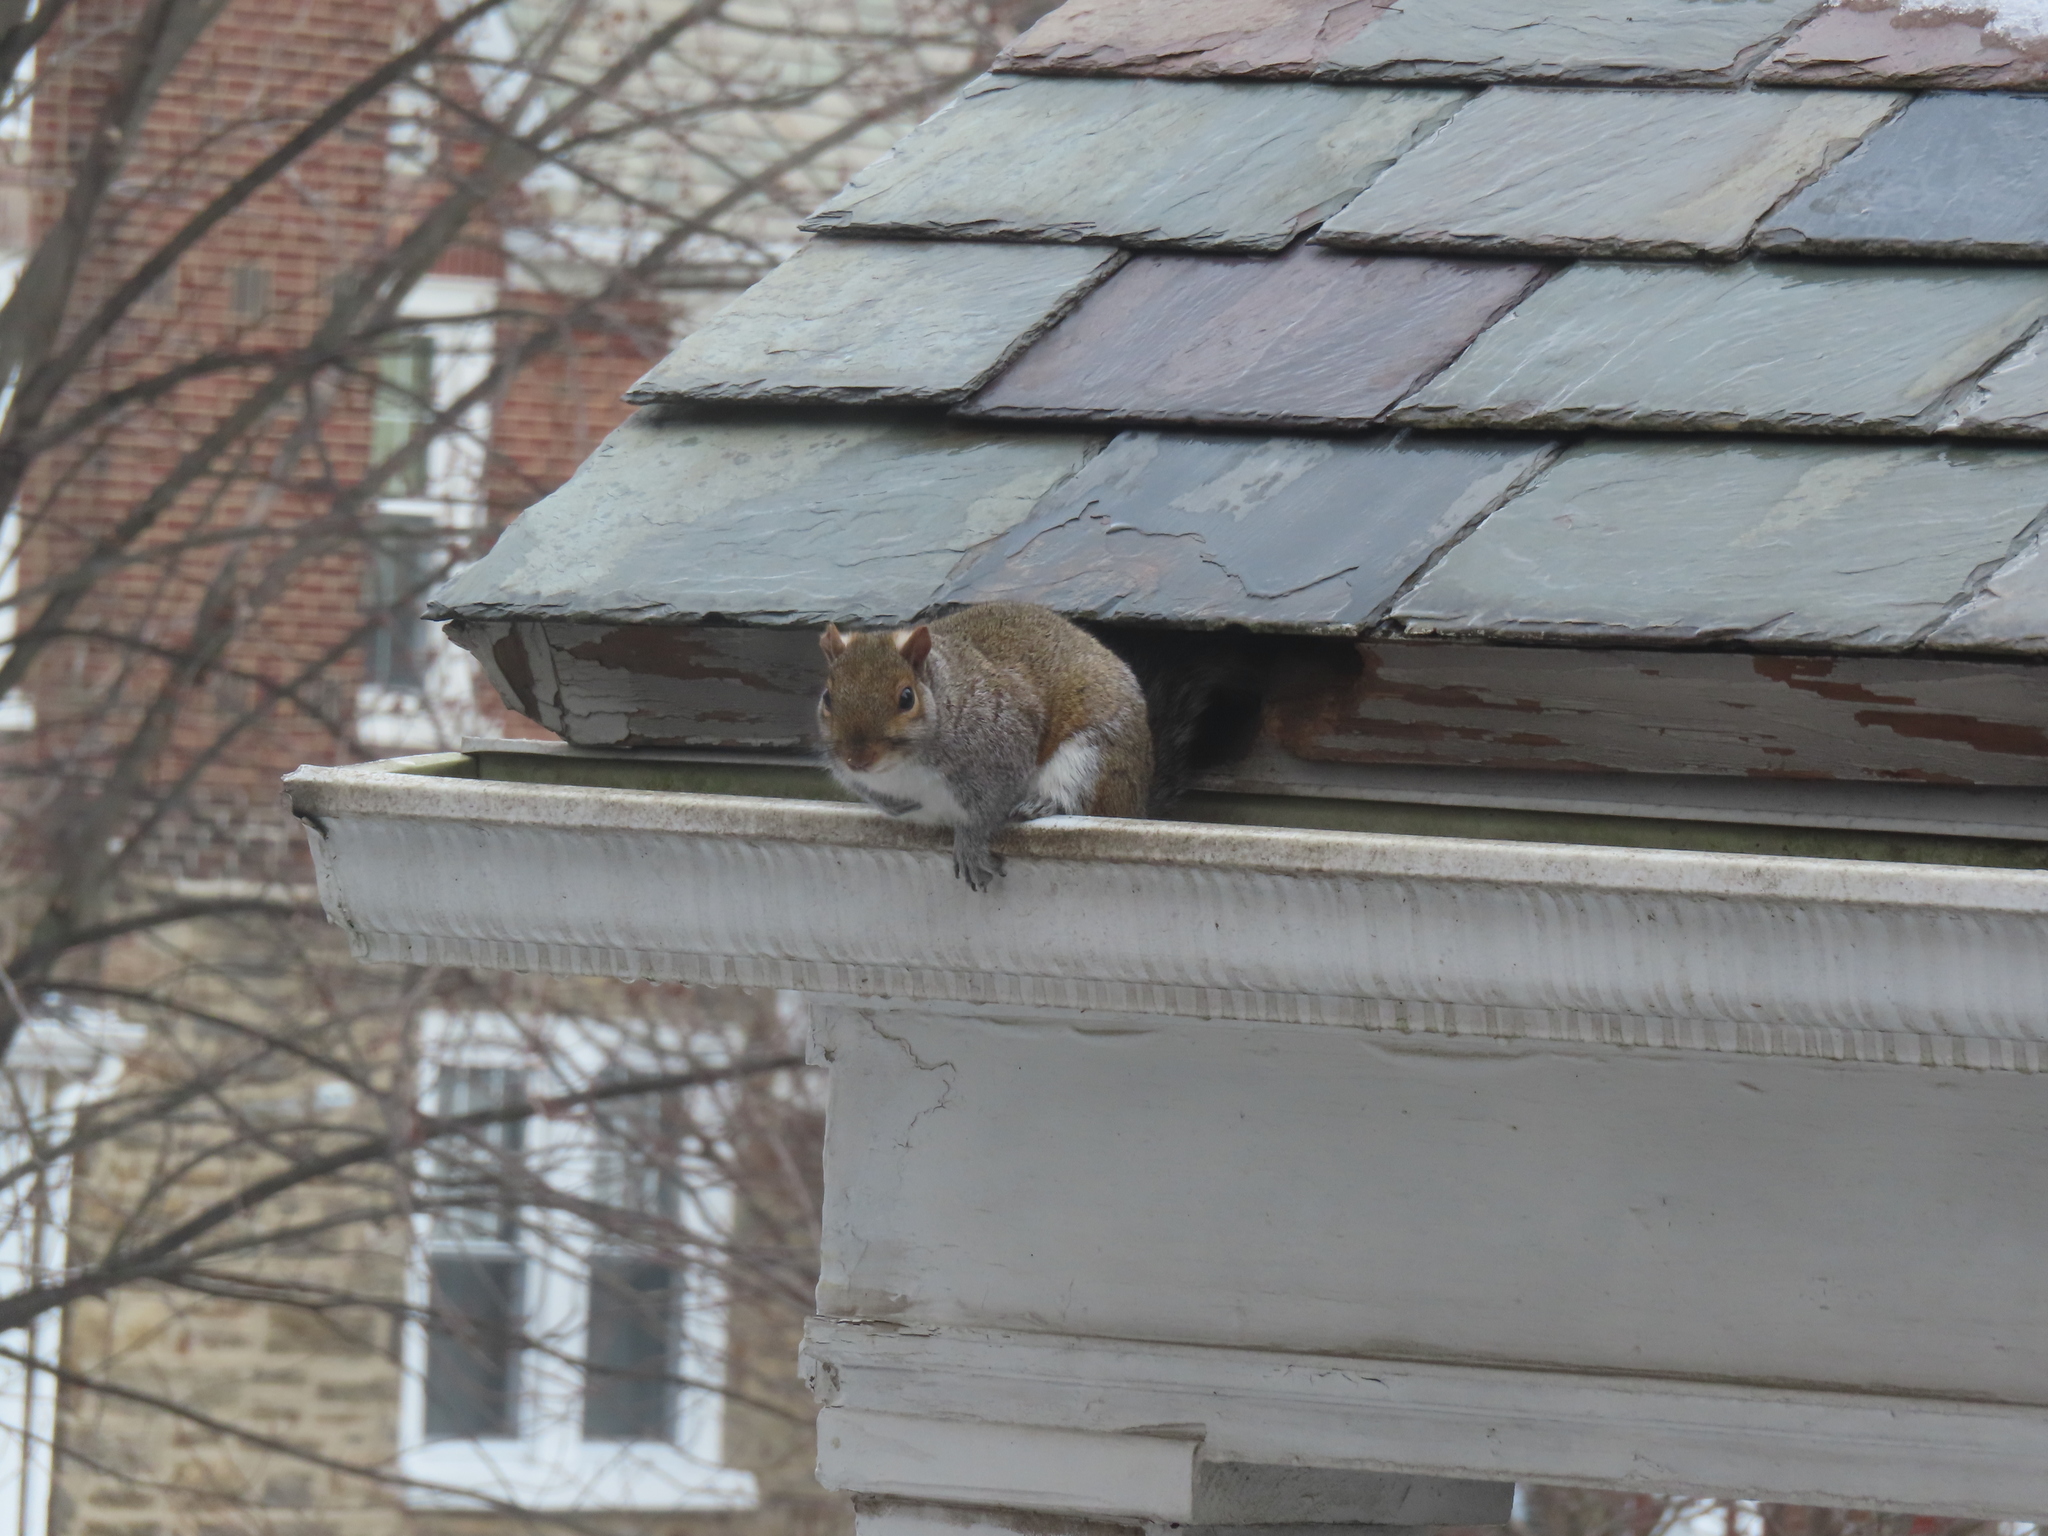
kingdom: Animalia
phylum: Chordata
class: Mammalia
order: Rodentia
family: Sciuridae
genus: Sciurus
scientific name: Sciurus carolinensis
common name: Eastern gray squirrel
